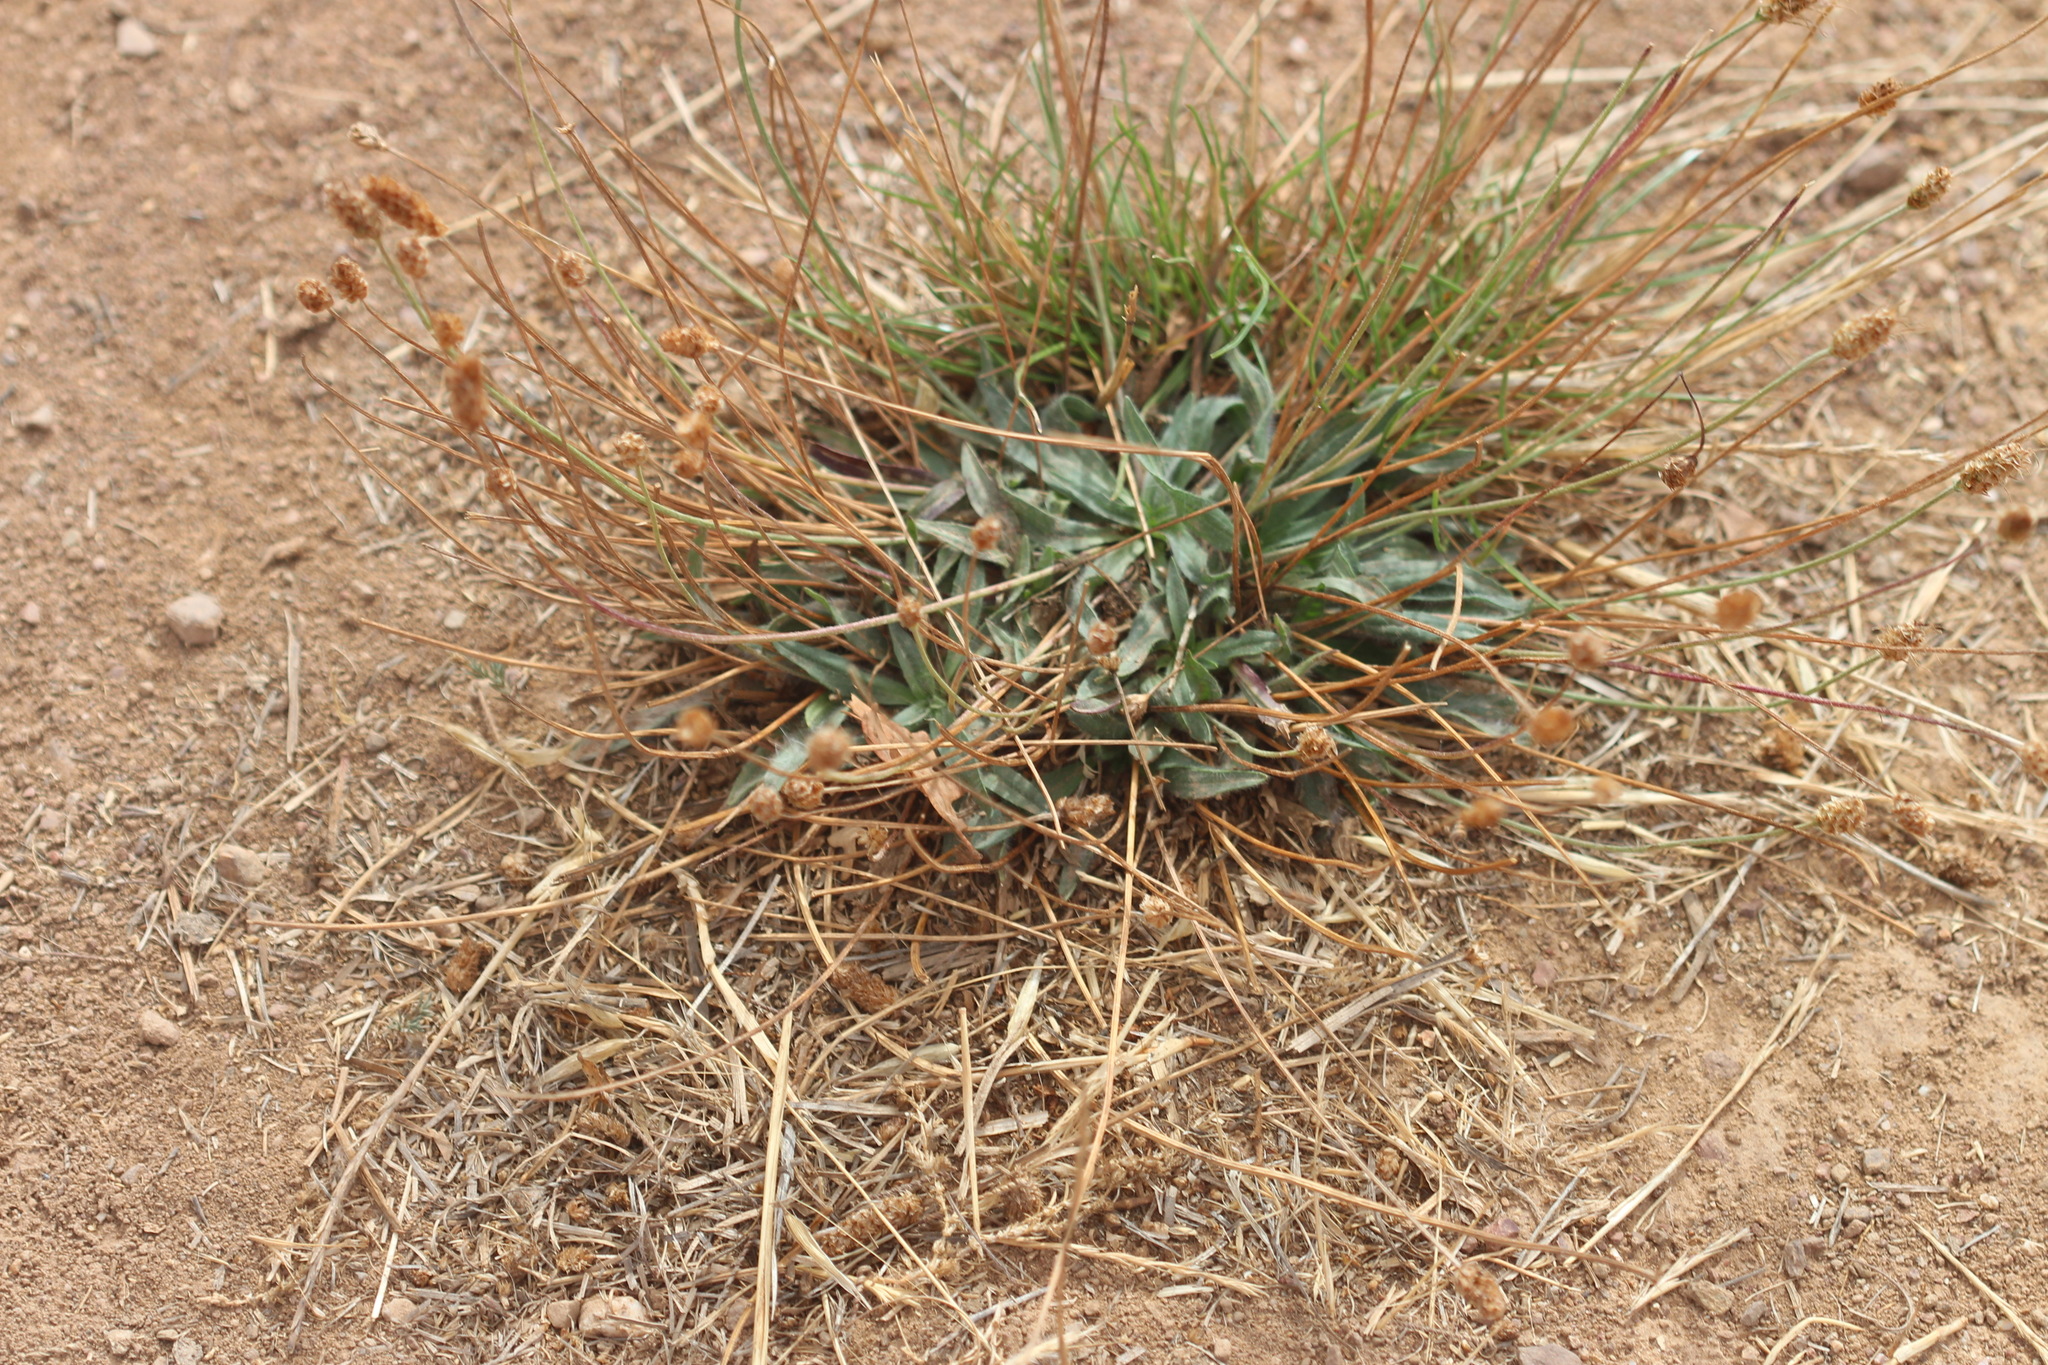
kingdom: Plantae
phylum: Tracheophyta
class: Magnoliopsida
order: Lamiales
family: Plantaginaceae
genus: Plantago
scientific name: Plantago lanceolata
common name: Ribwort plantain
